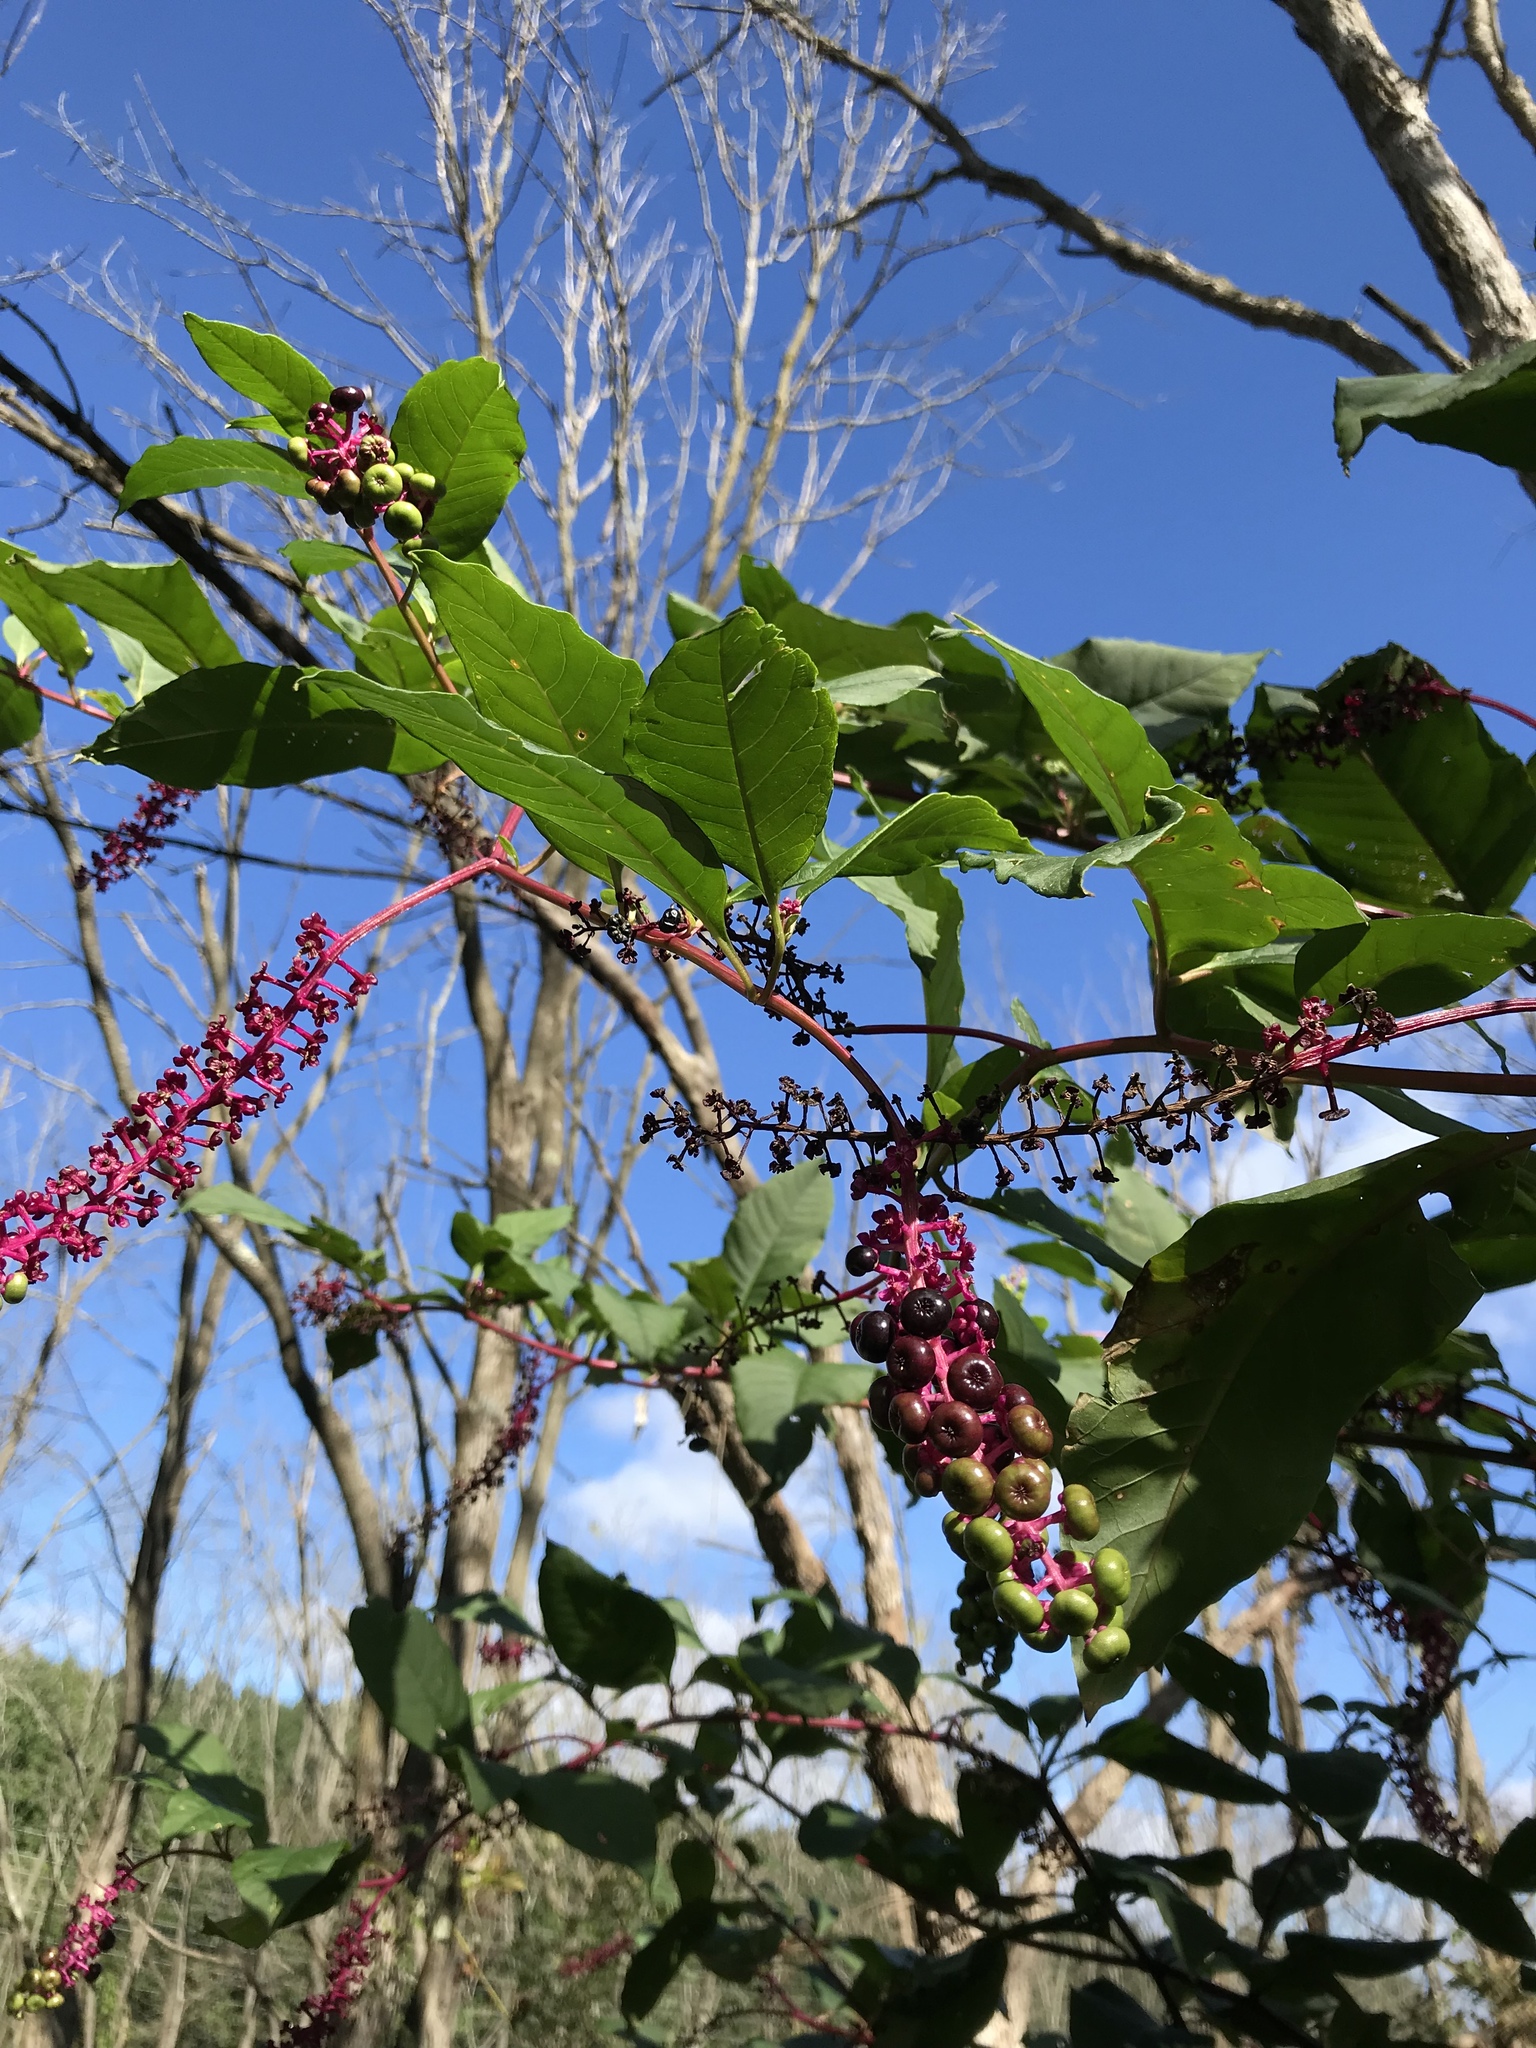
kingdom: Plantae
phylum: Tracheophyta
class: Magnoliopsida
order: Caryophyllales
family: Phytolaccaceae
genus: Phytolacca
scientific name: Phytolacca americana
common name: American pokeweed
